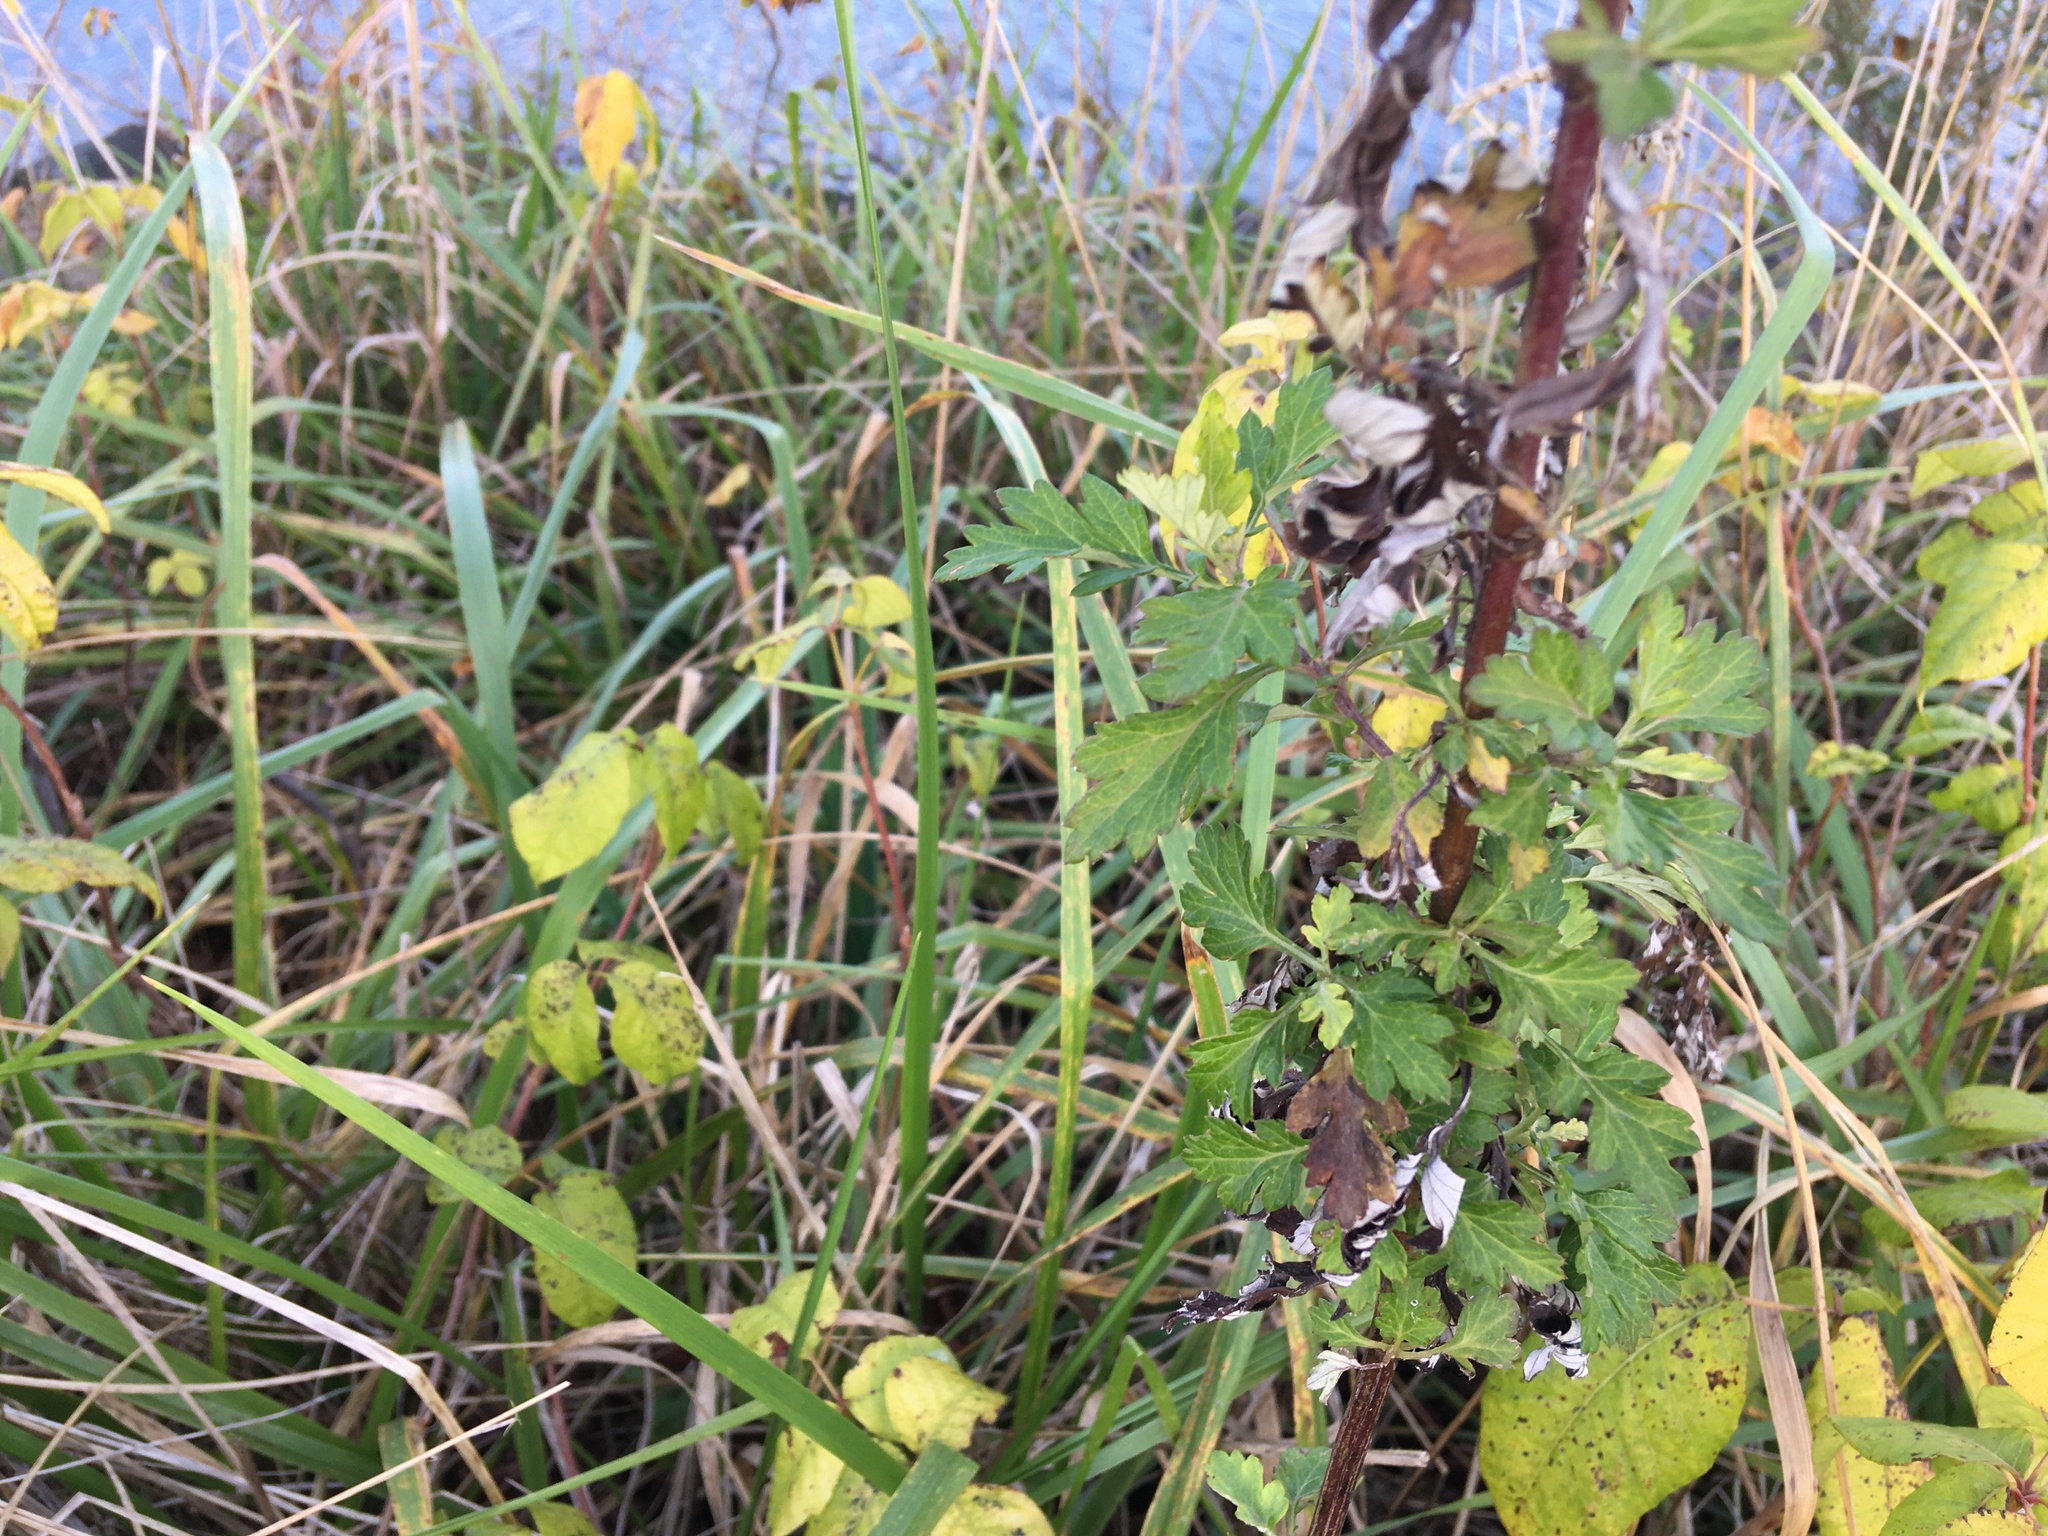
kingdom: Plantae
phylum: Tracheophyta
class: Magnoliopsida
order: Asterales
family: Asteraceae
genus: Artemisia
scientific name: Artemisia vulgaris
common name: Mugwort
